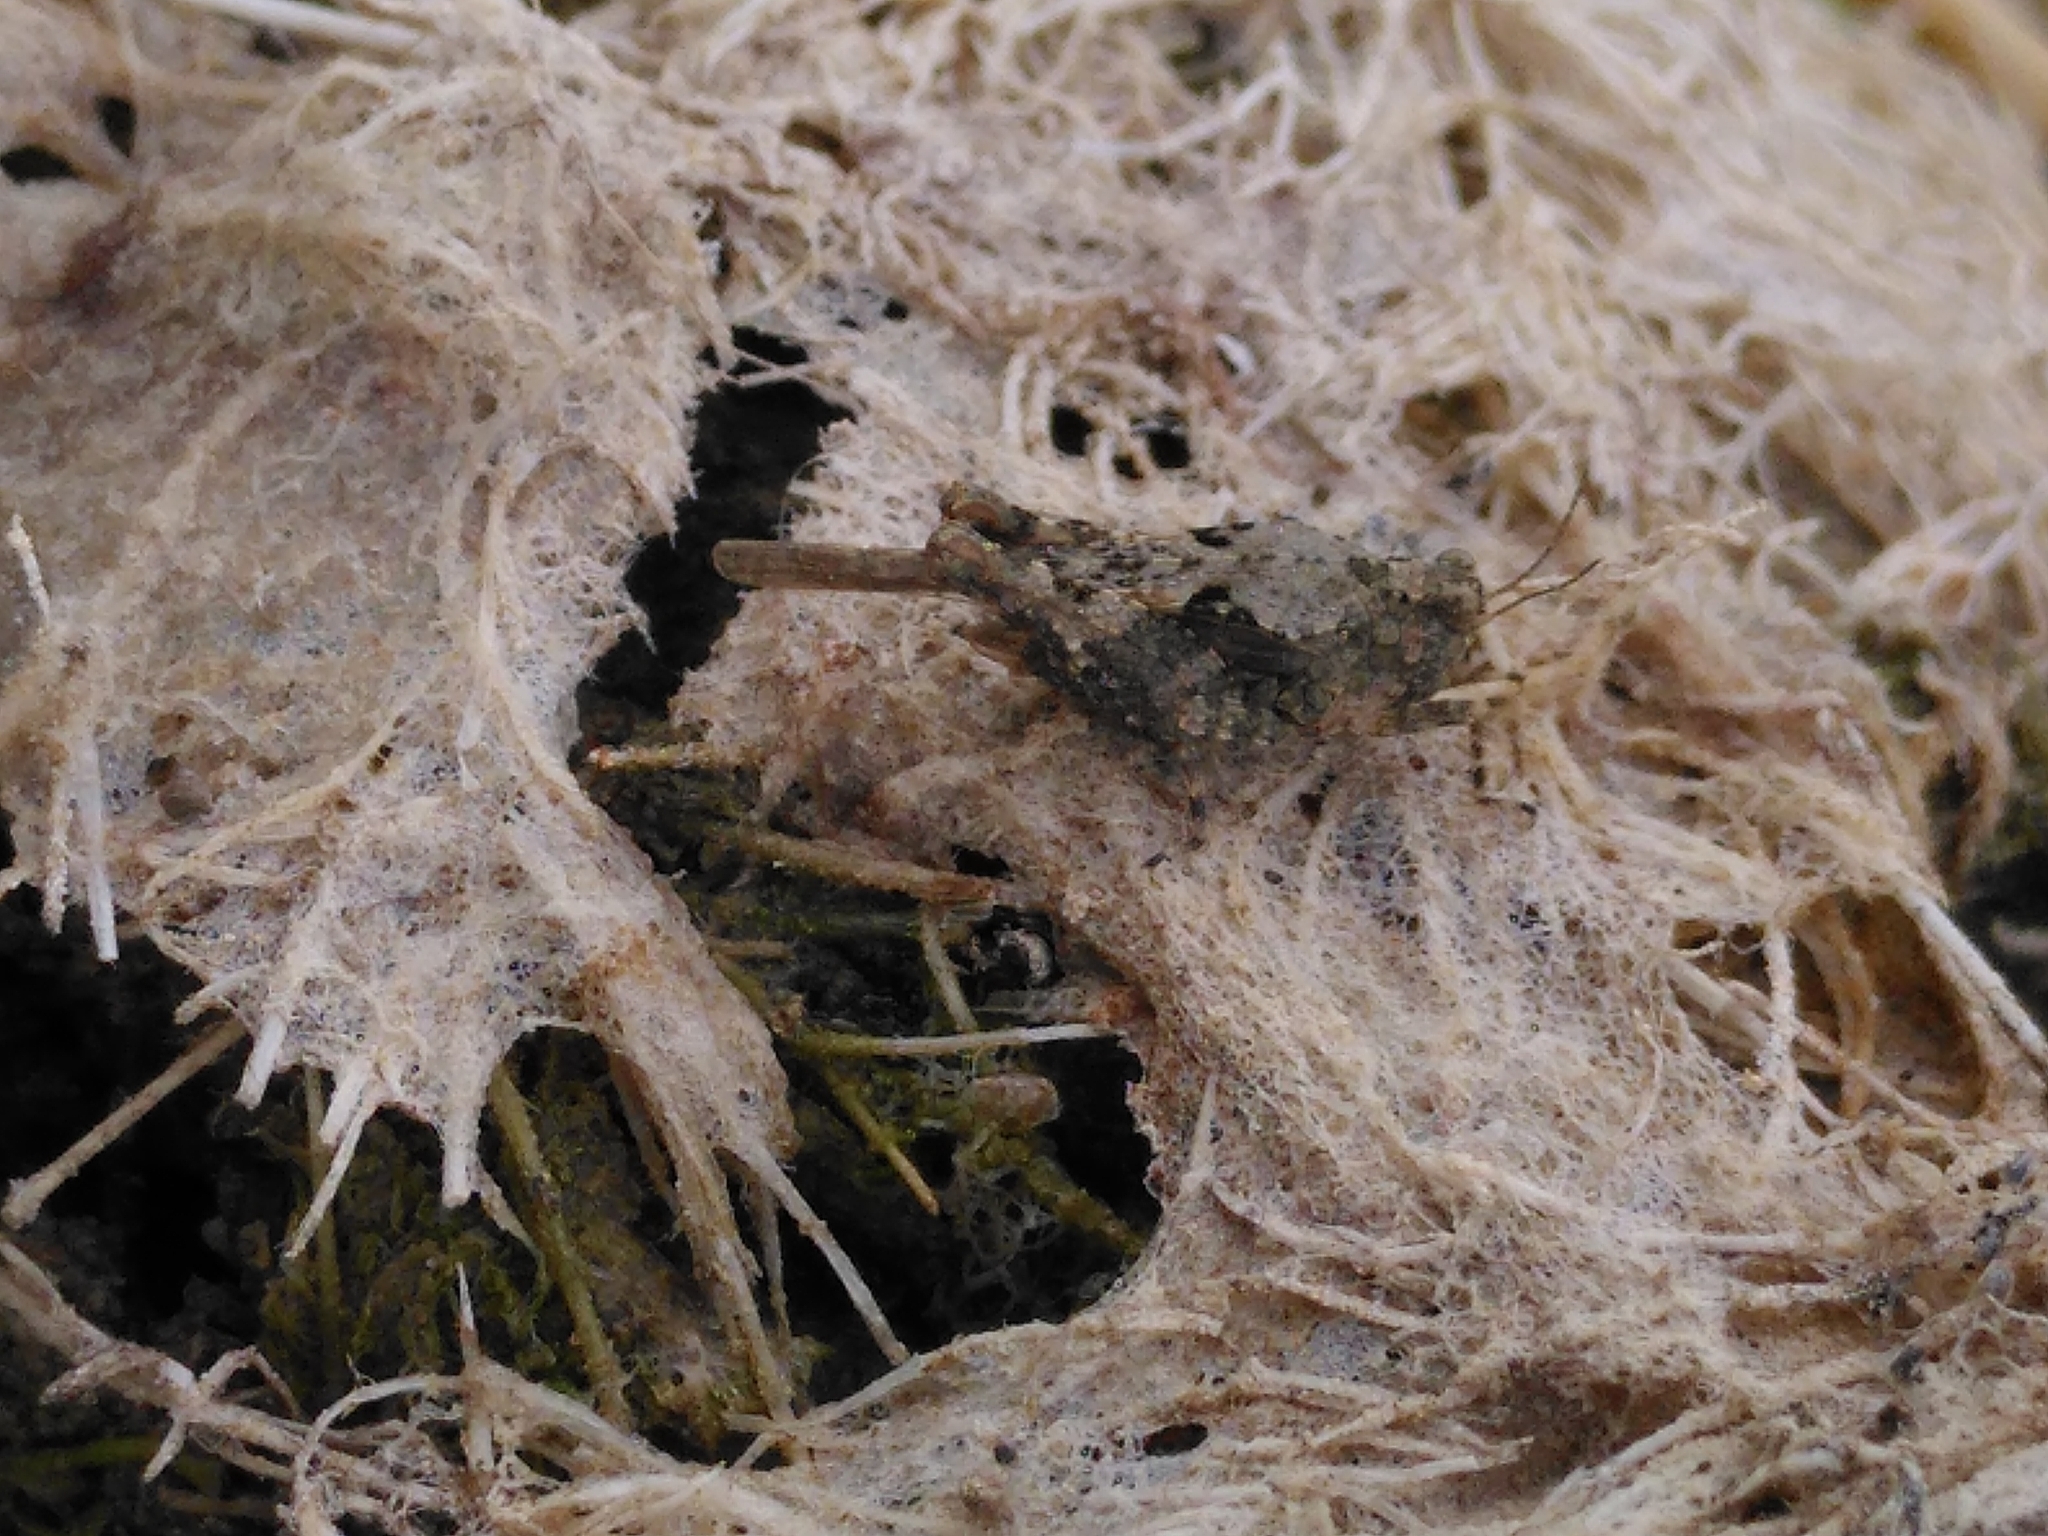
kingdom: Animalia
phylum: Arthropoda
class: Insecta
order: Orthoptera
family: Tetrigidae
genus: Paratettix
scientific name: Paratettix meridionalis
